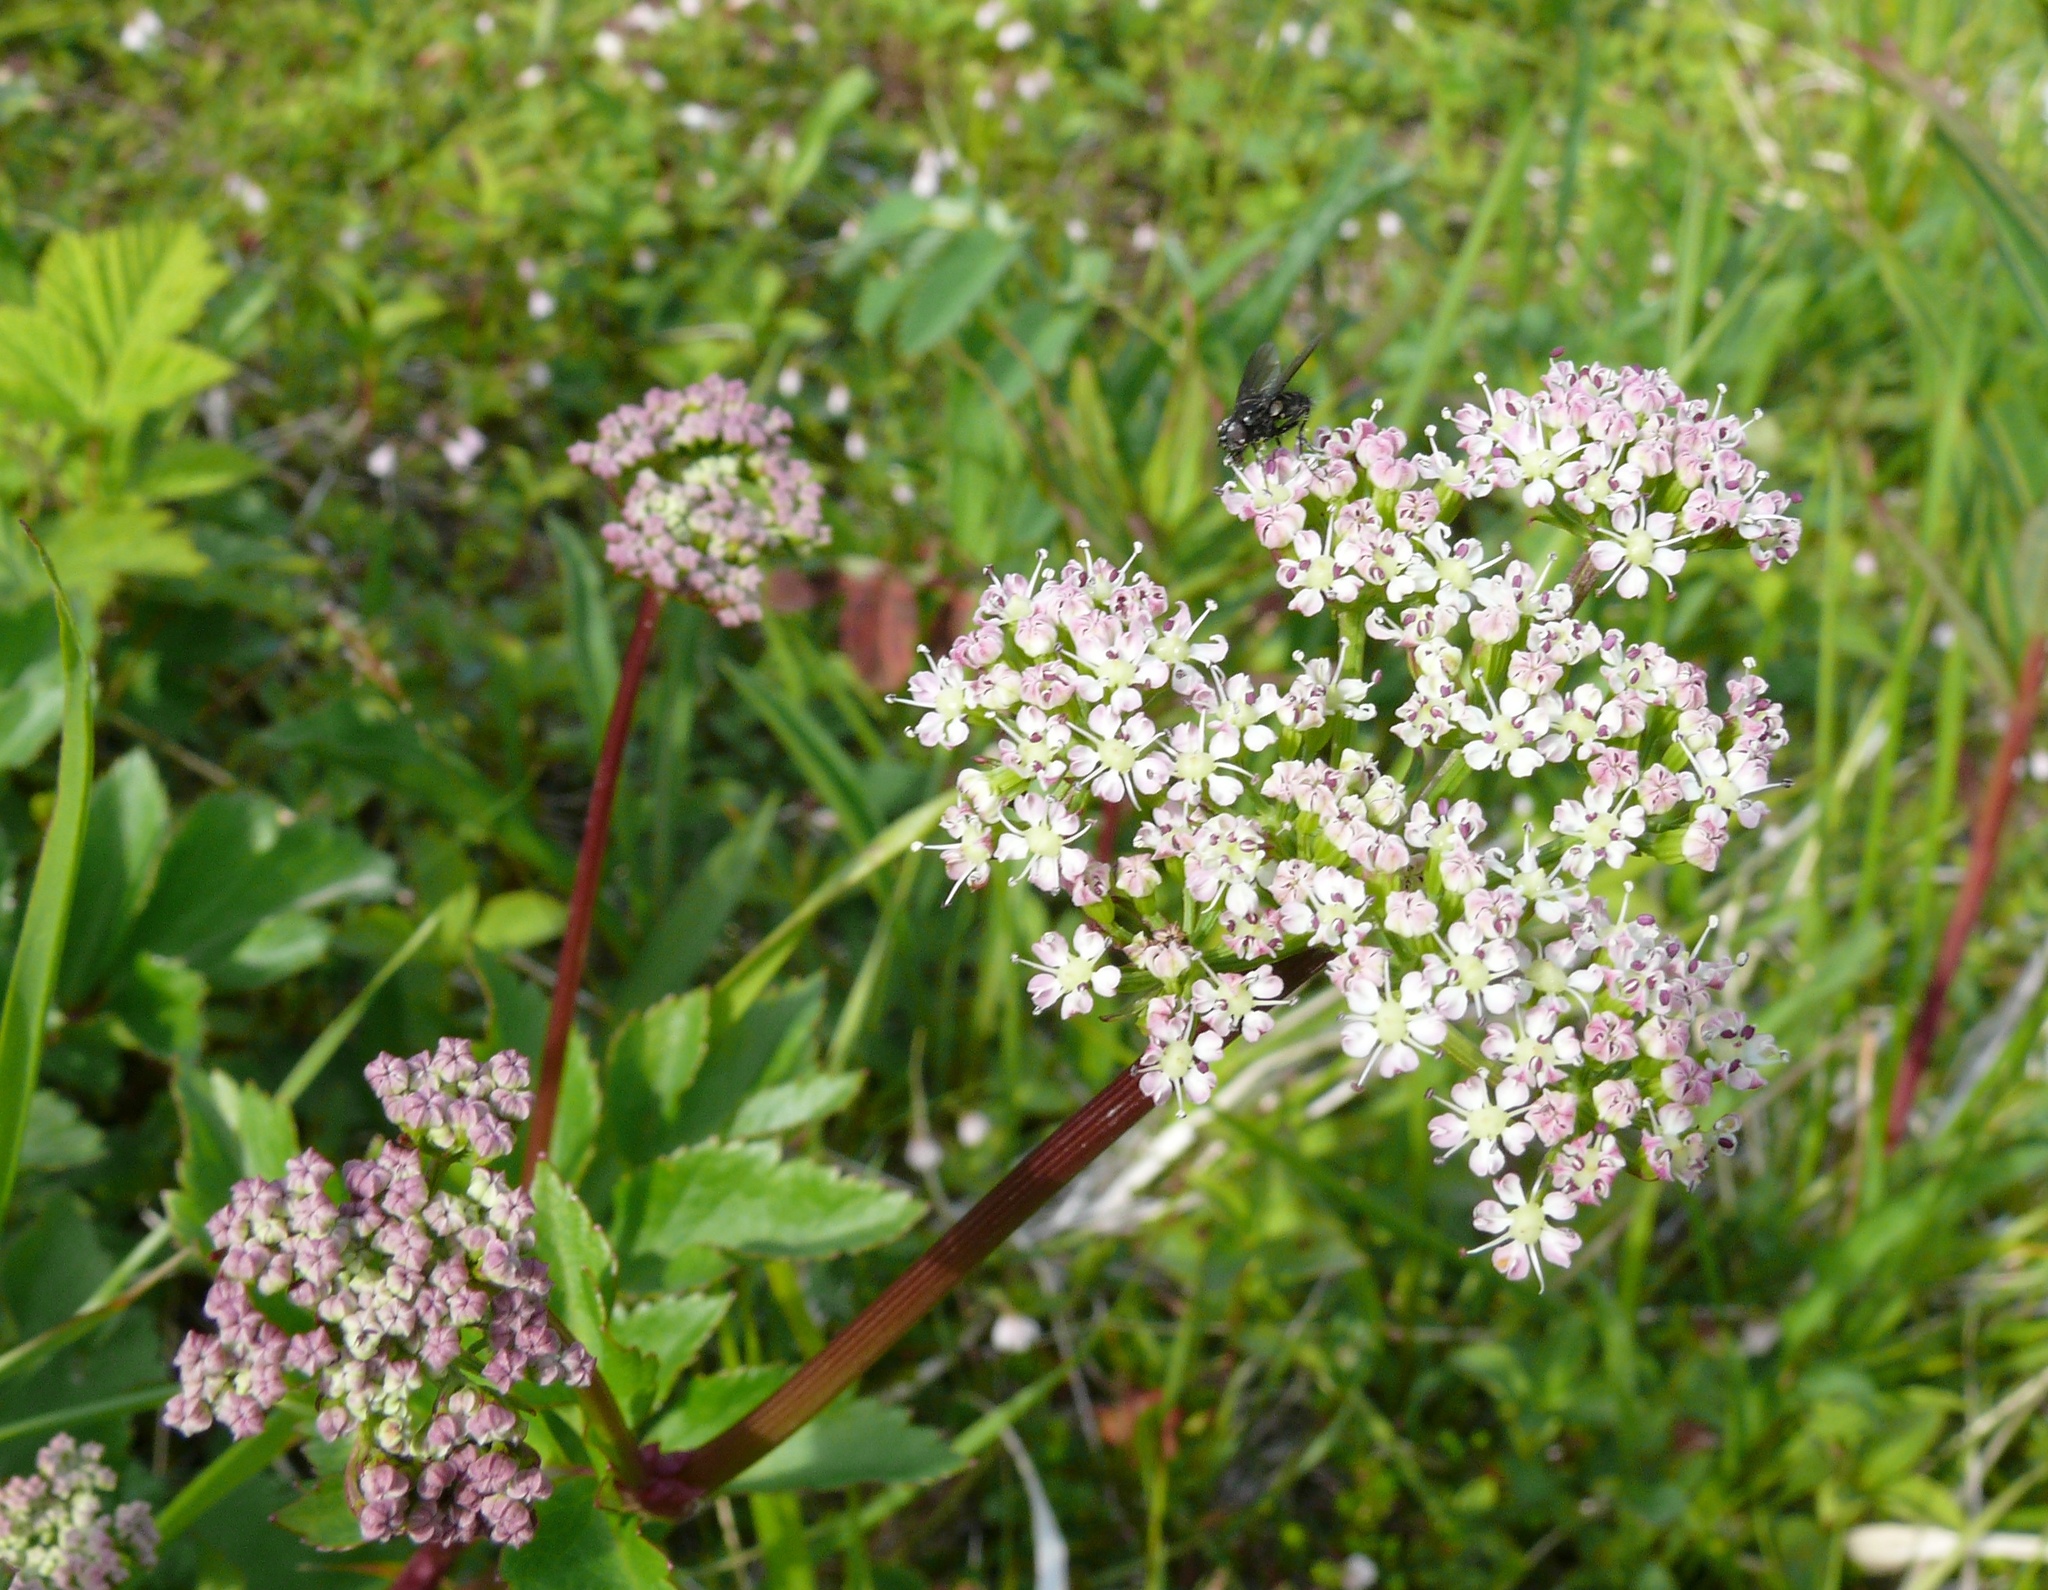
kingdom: Plantae
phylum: Tracheophyta
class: Magnoliopsida
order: Apiales
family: Apiaceae
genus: Ligusticum
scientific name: Ligusticum scothicum
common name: Beach lovage
